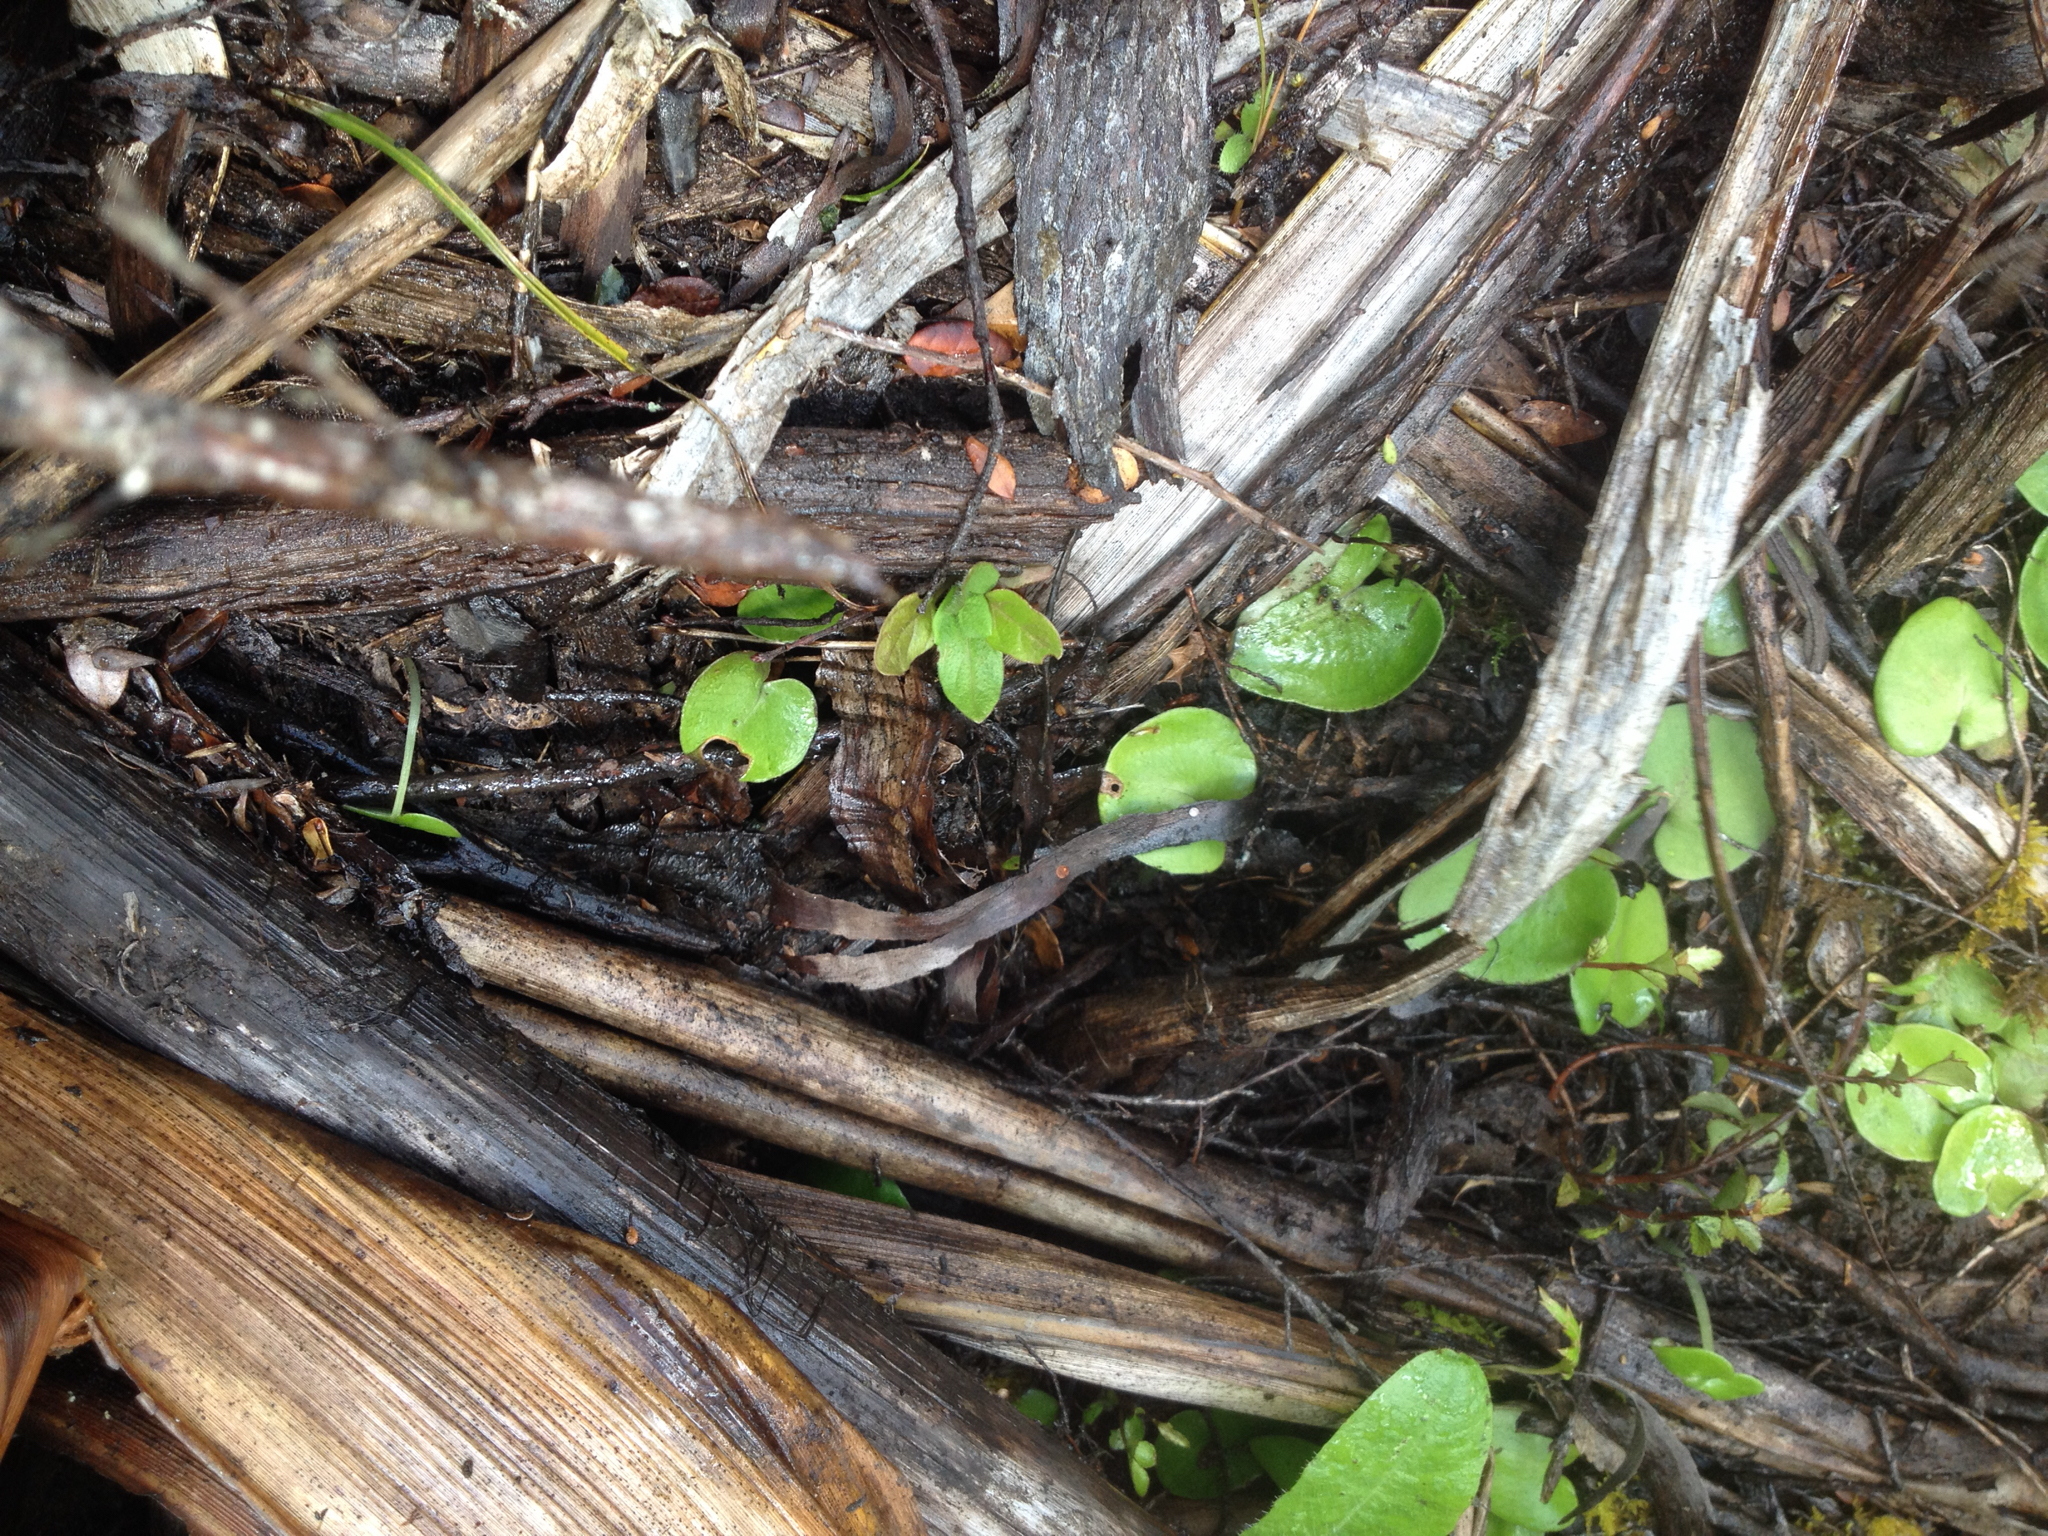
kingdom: Plantae
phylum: Tracheophyta
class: Liliopsida
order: Asparagales
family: Orchidaceae
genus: Corybas
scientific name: Corybas macranthus
